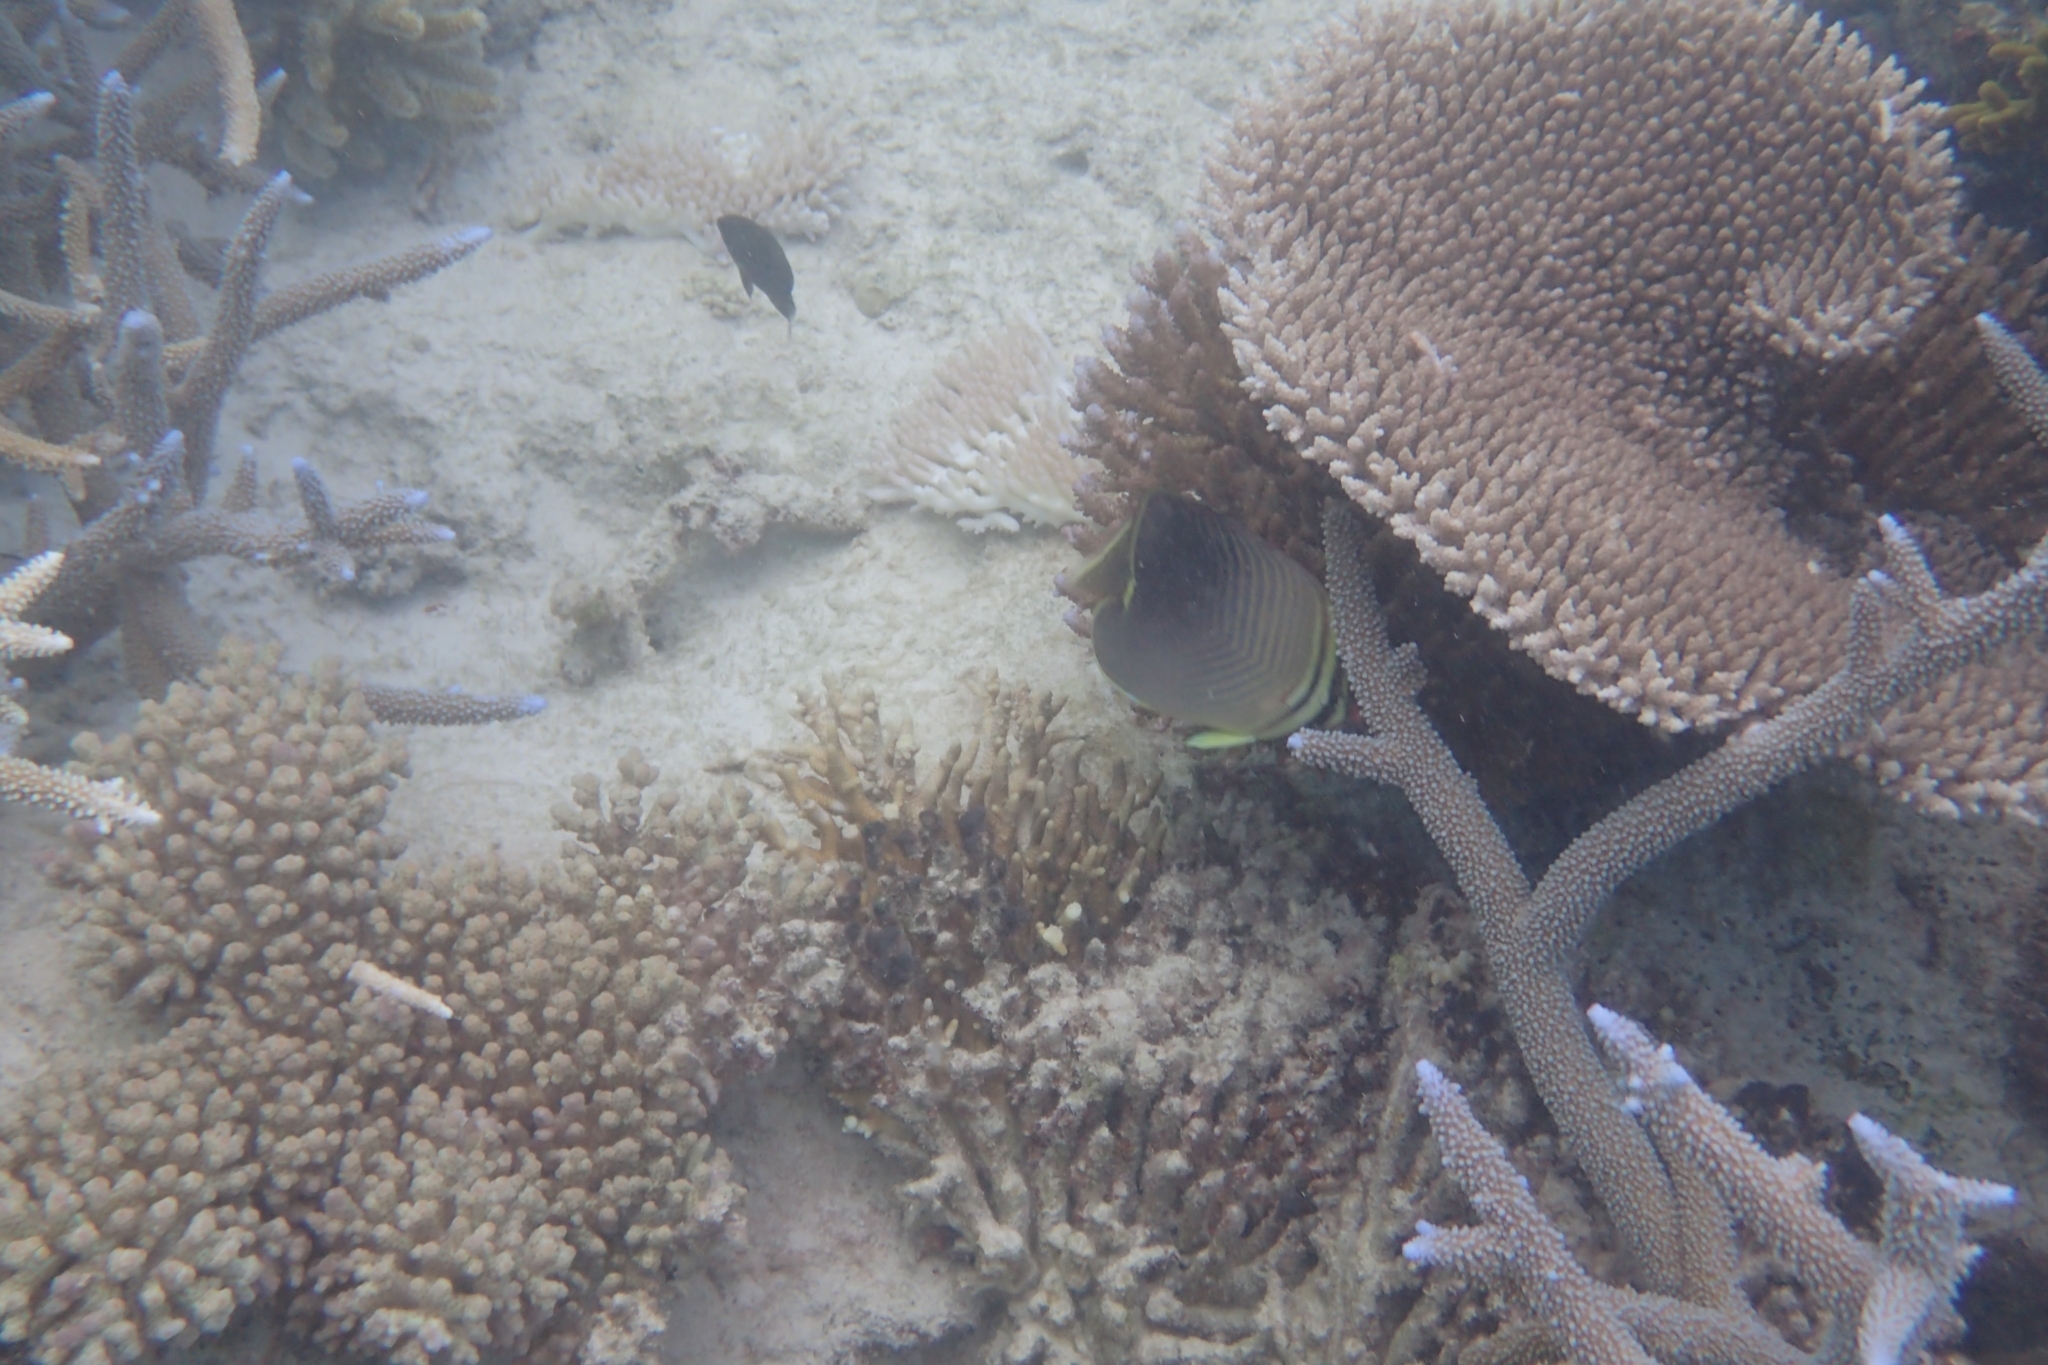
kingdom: Animalia
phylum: Chordata
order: Perciformes
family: Chaetodontidae
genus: Chaetodon
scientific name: Chaetodon baronessa
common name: Triangular butterflyfish
